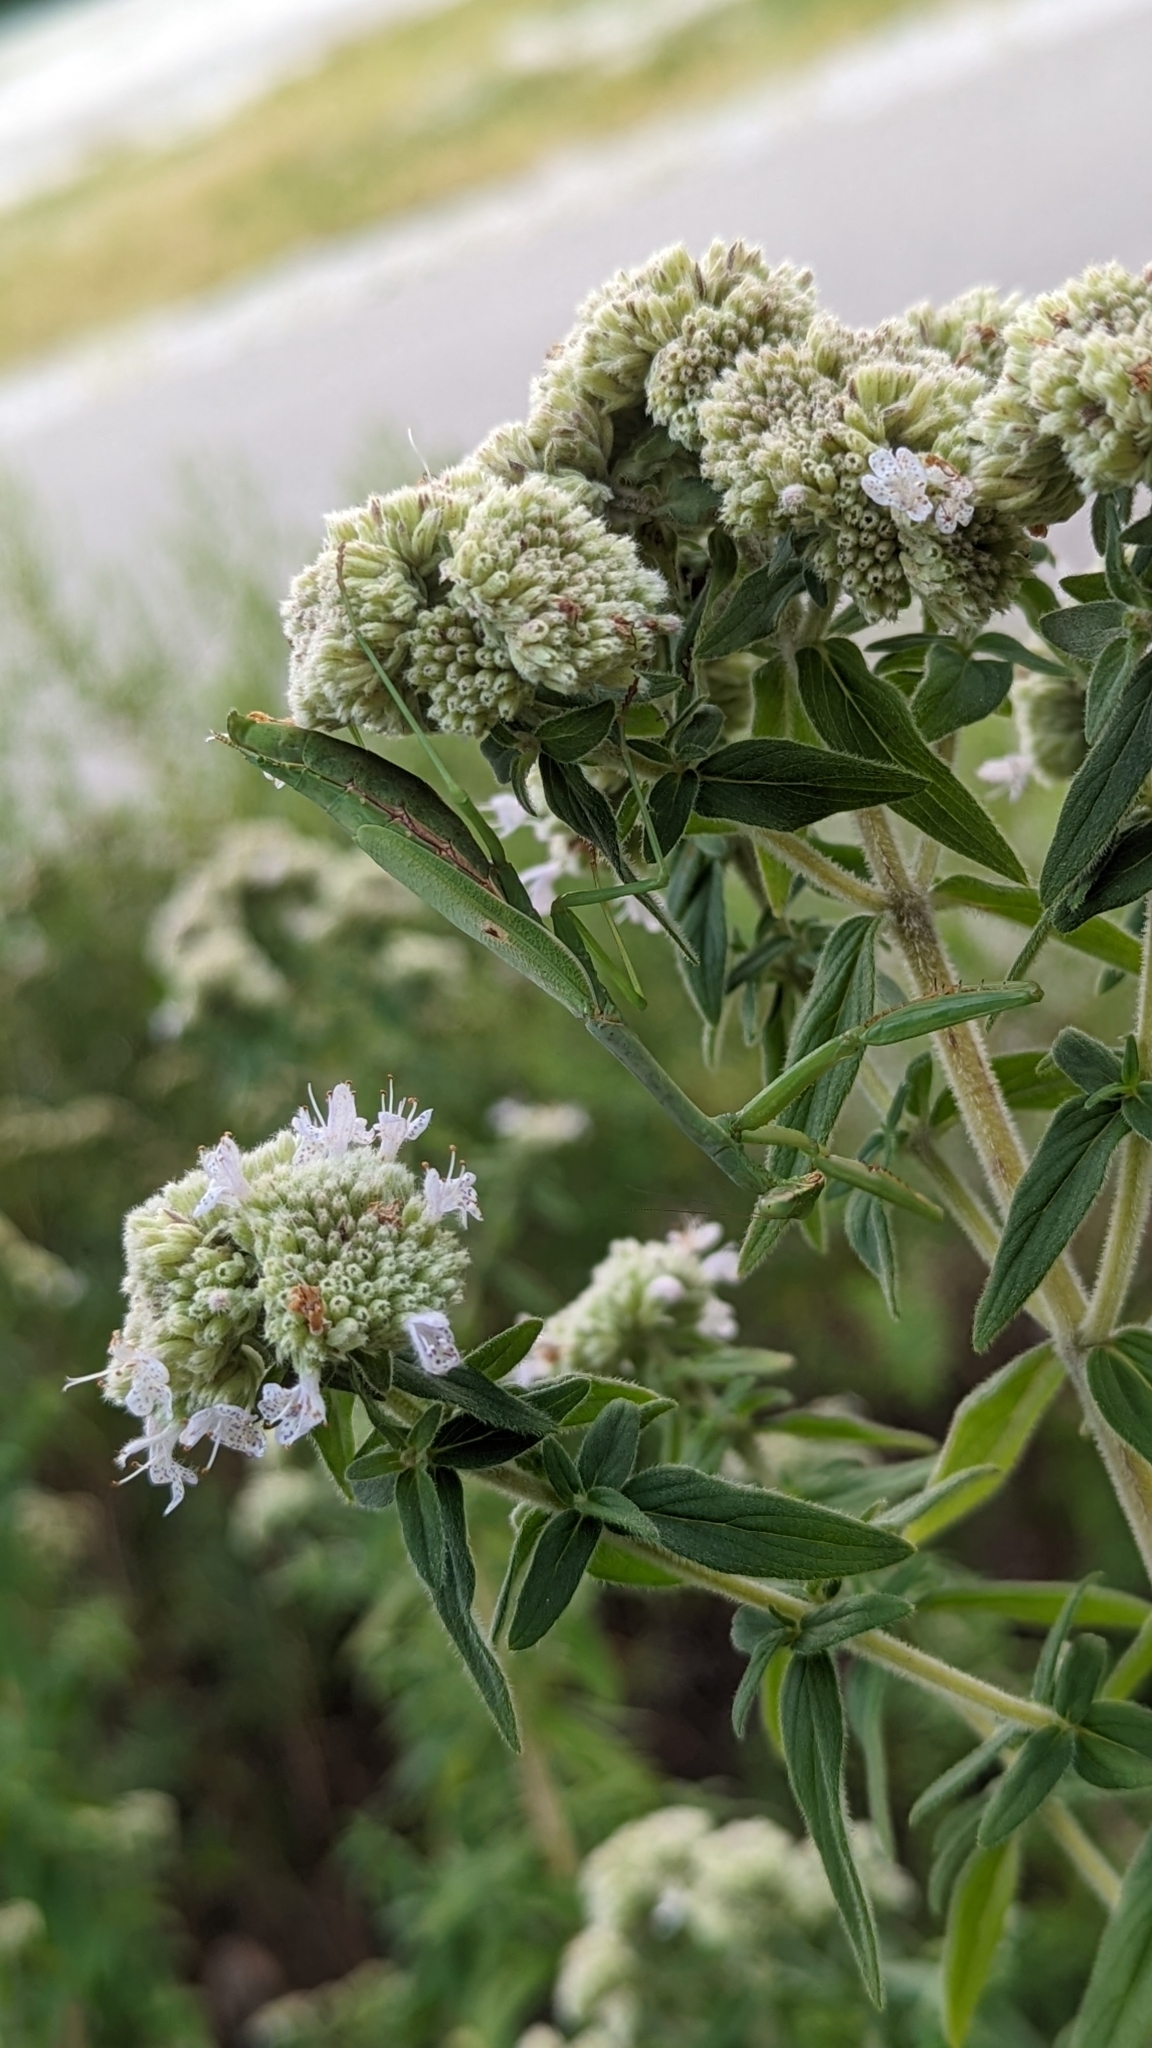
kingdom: Animalia
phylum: Arthropoda
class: Insecta
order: Mantodea
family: Mantidae
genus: Stagmomantis
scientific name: Stagmomantis carolina
